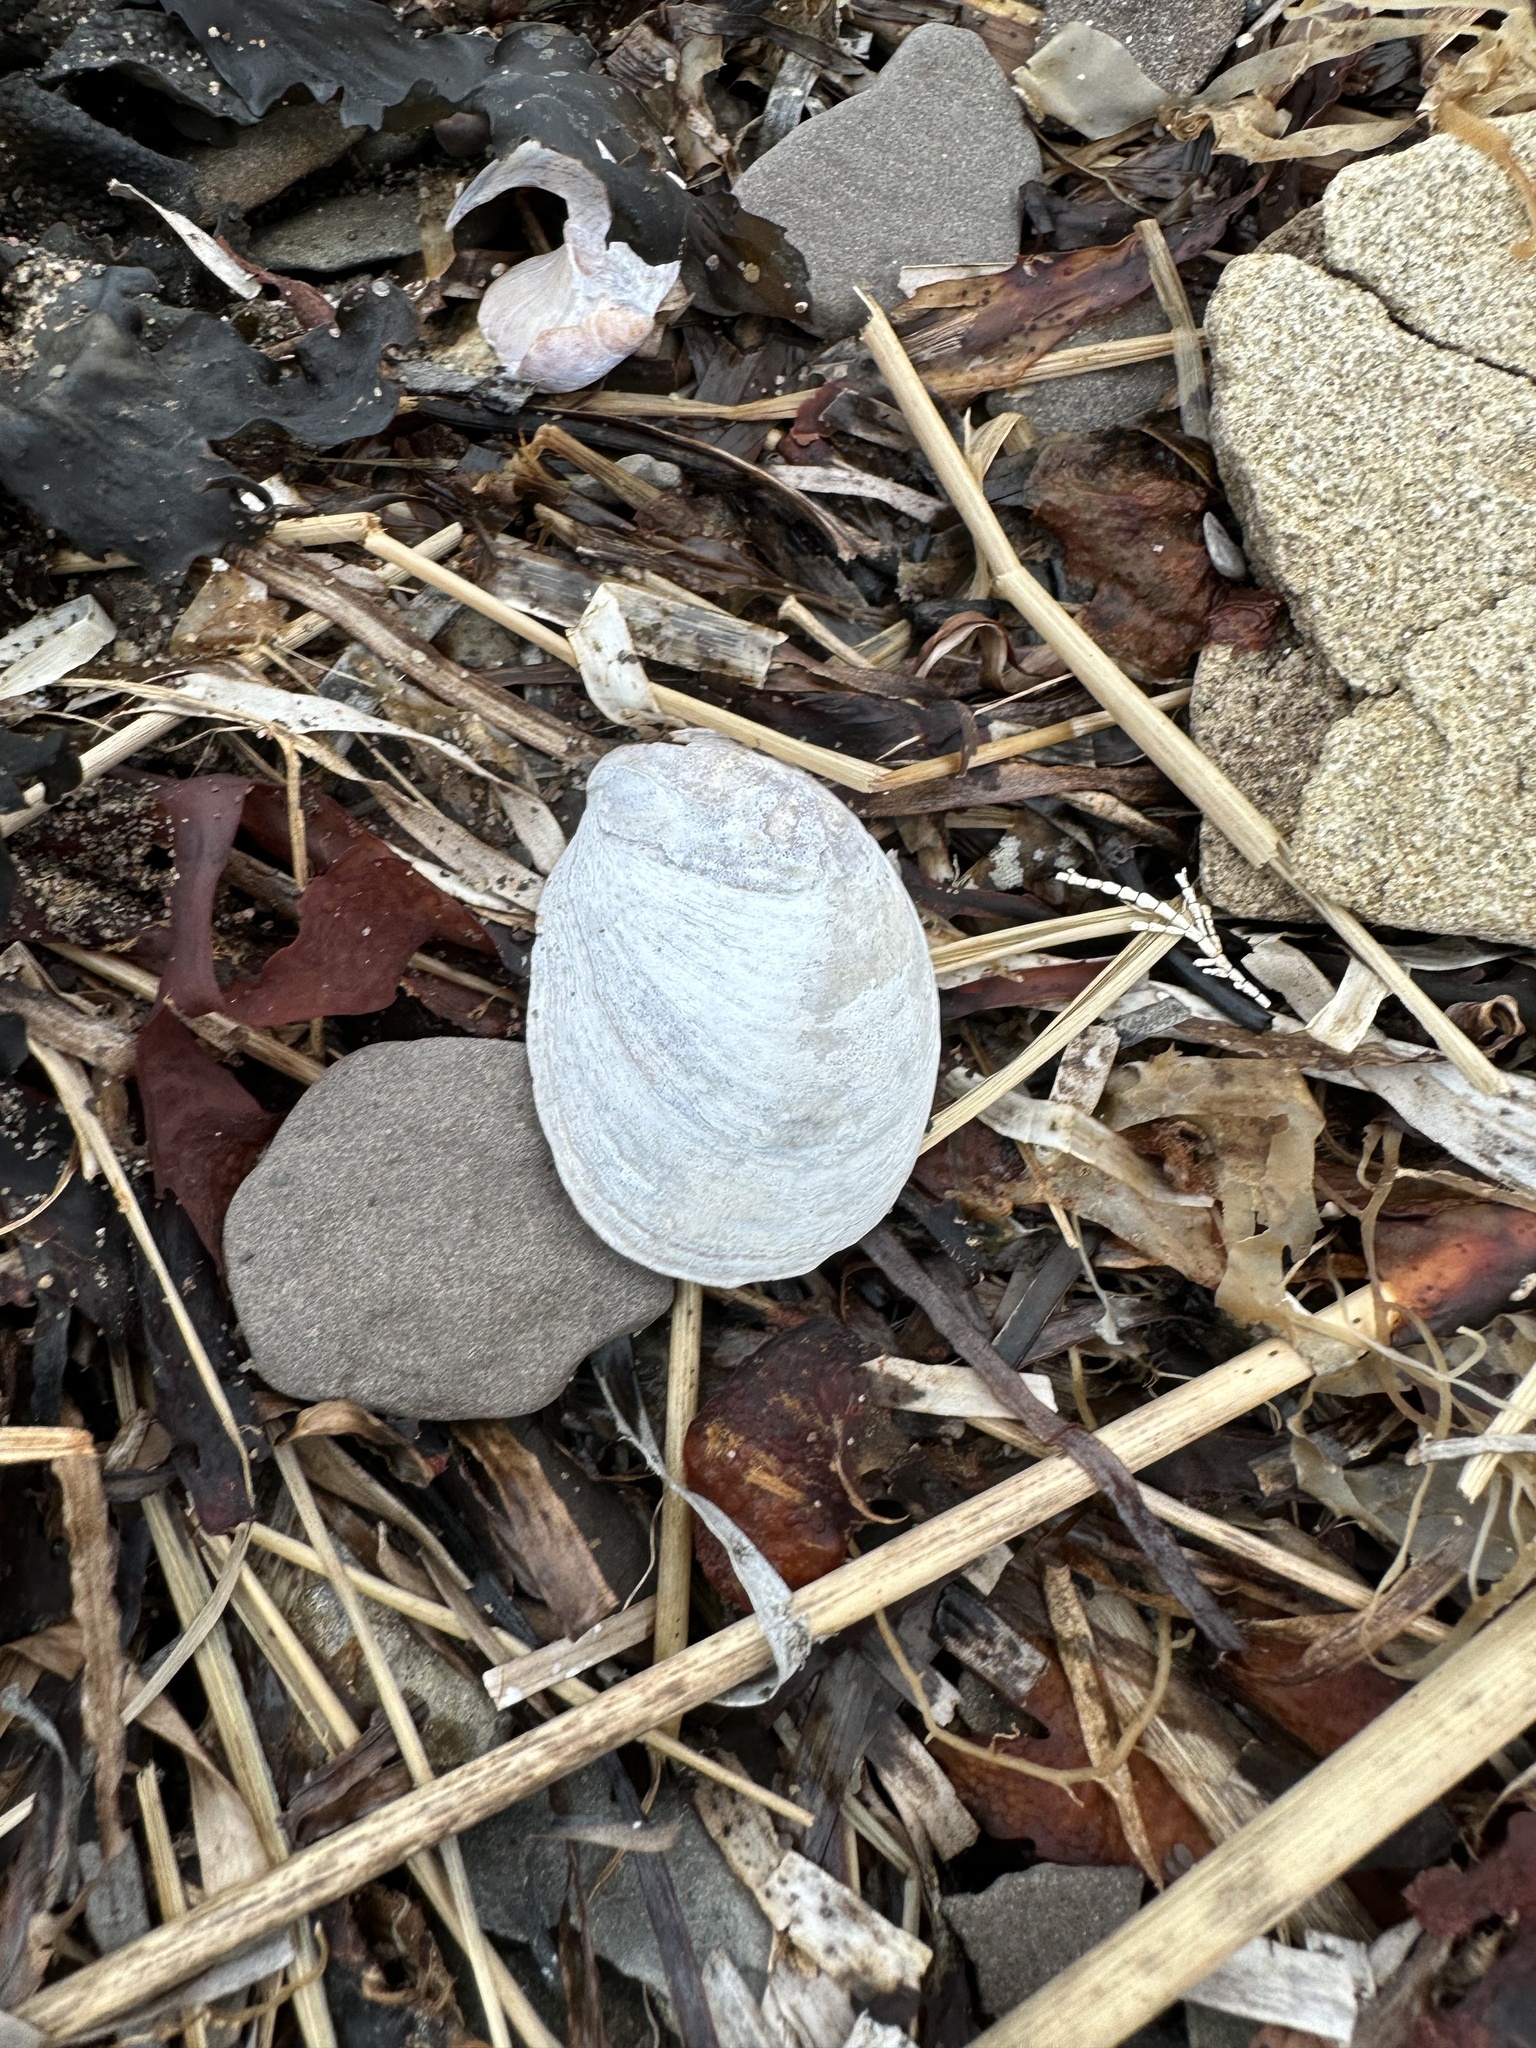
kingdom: Animalia
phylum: Mollusca
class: Gastropoda
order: Littorinimorpha
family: Calyptraeidae
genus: Crepidula
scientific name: Crepidula fornicata
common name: Slipper limpet
